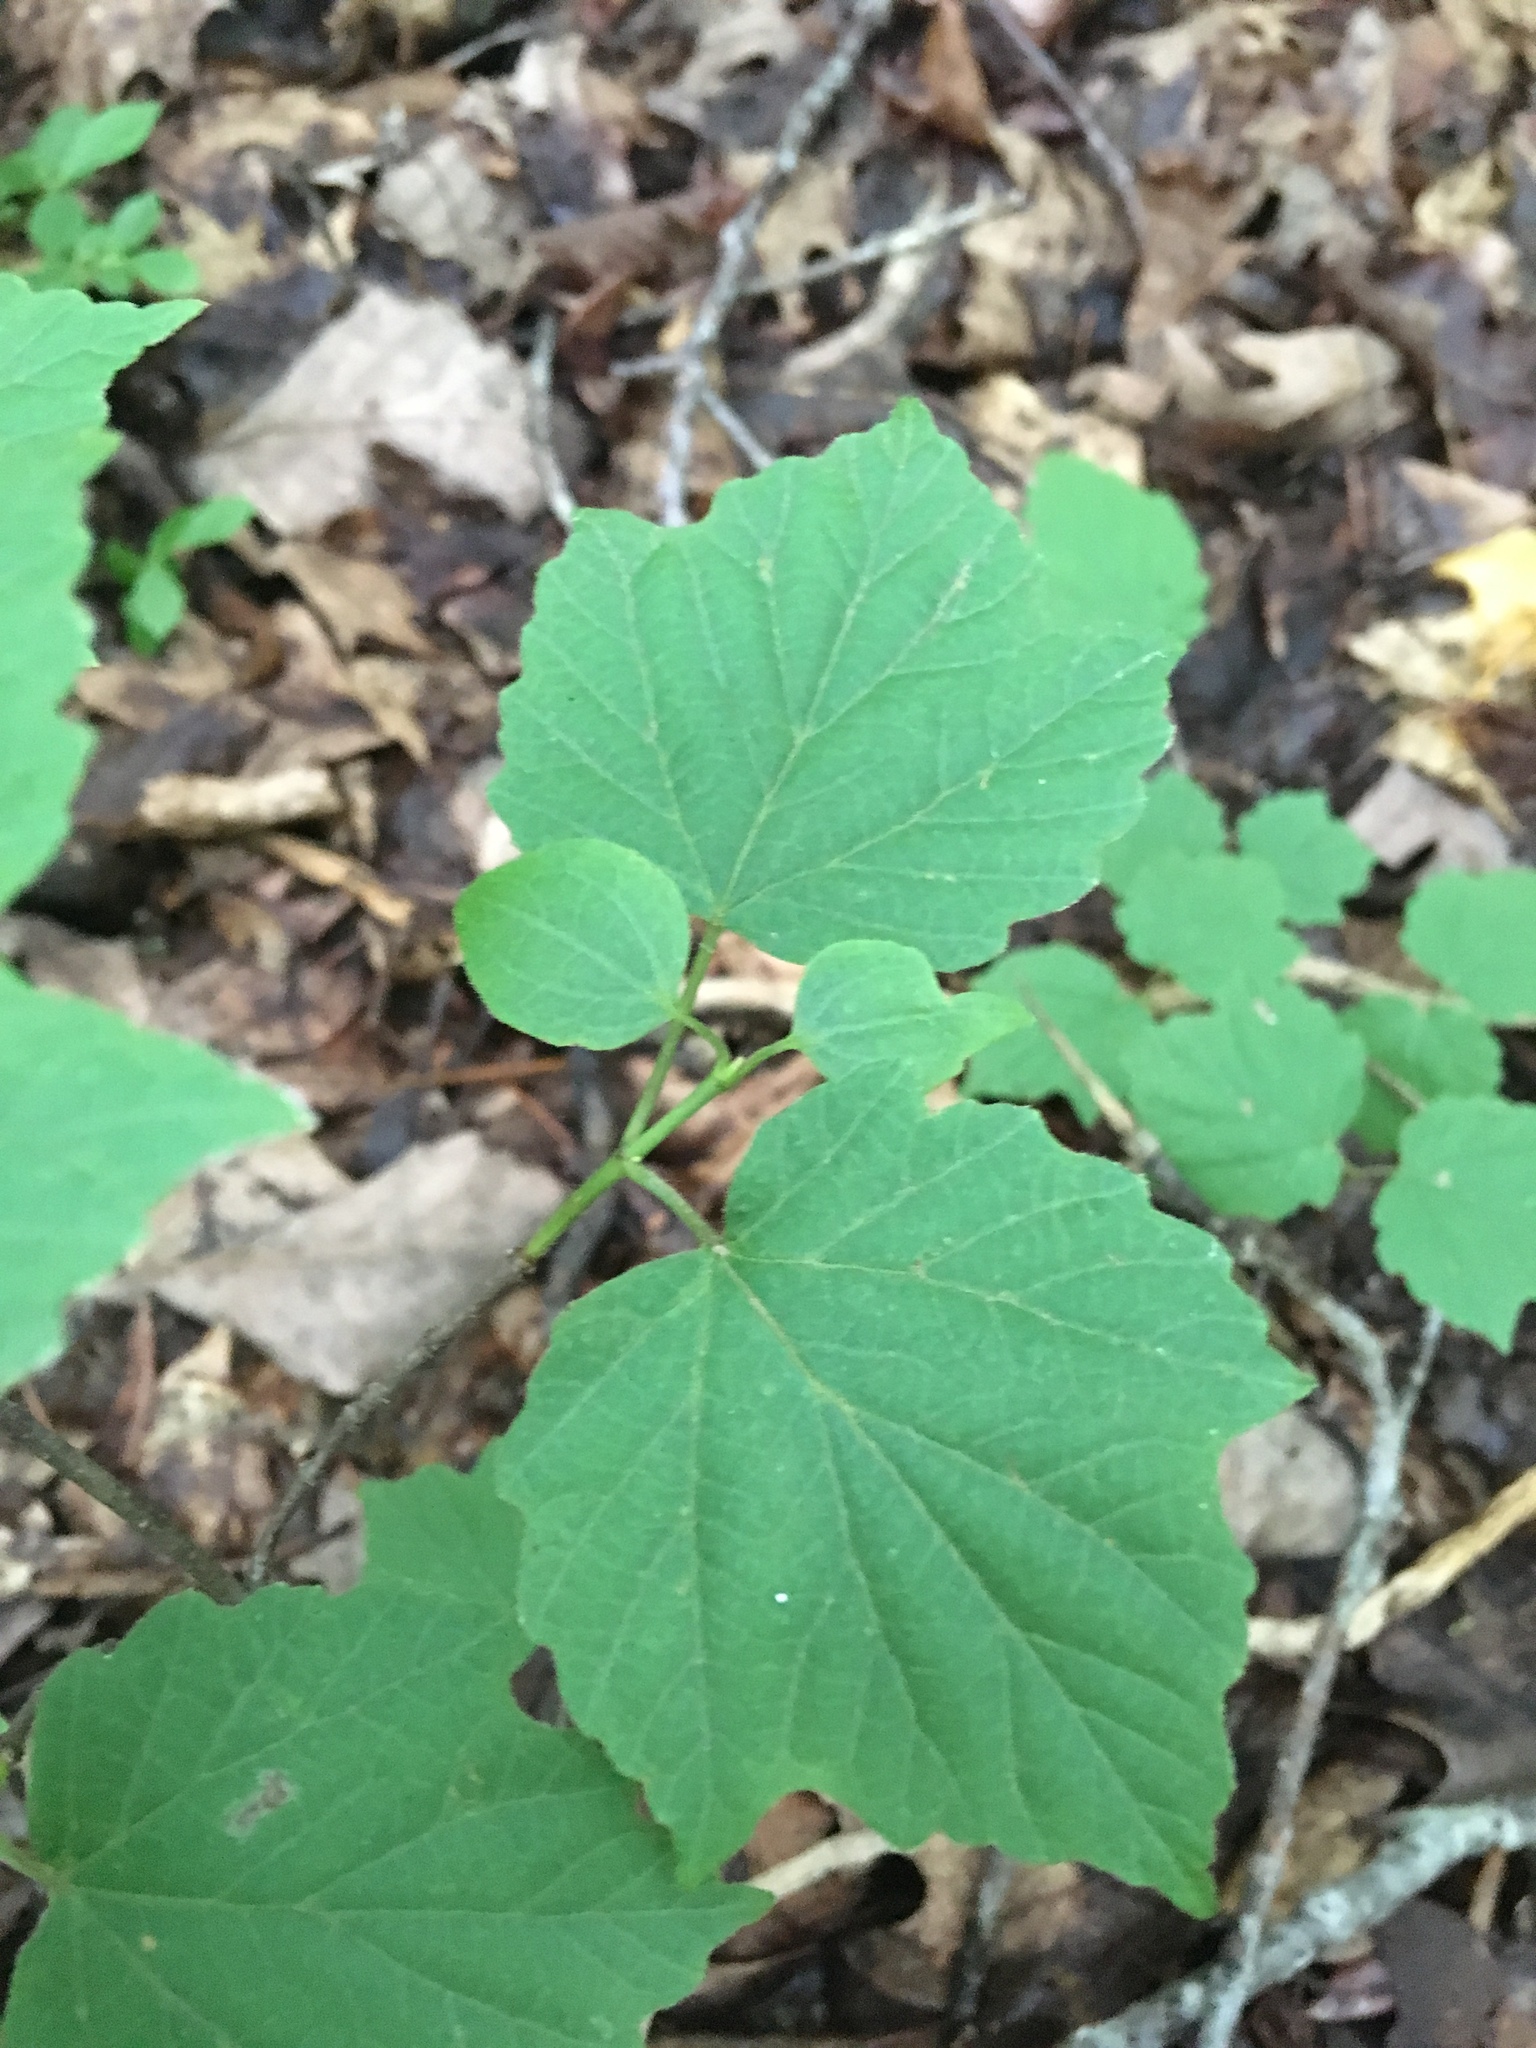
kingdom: Plantae
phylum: Tracheophyta
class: Magnoliopsida
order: Dipsacales
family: Viburnaceae
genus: Viburnum
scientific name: Viburnum acerifolium
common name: Dockmackie
